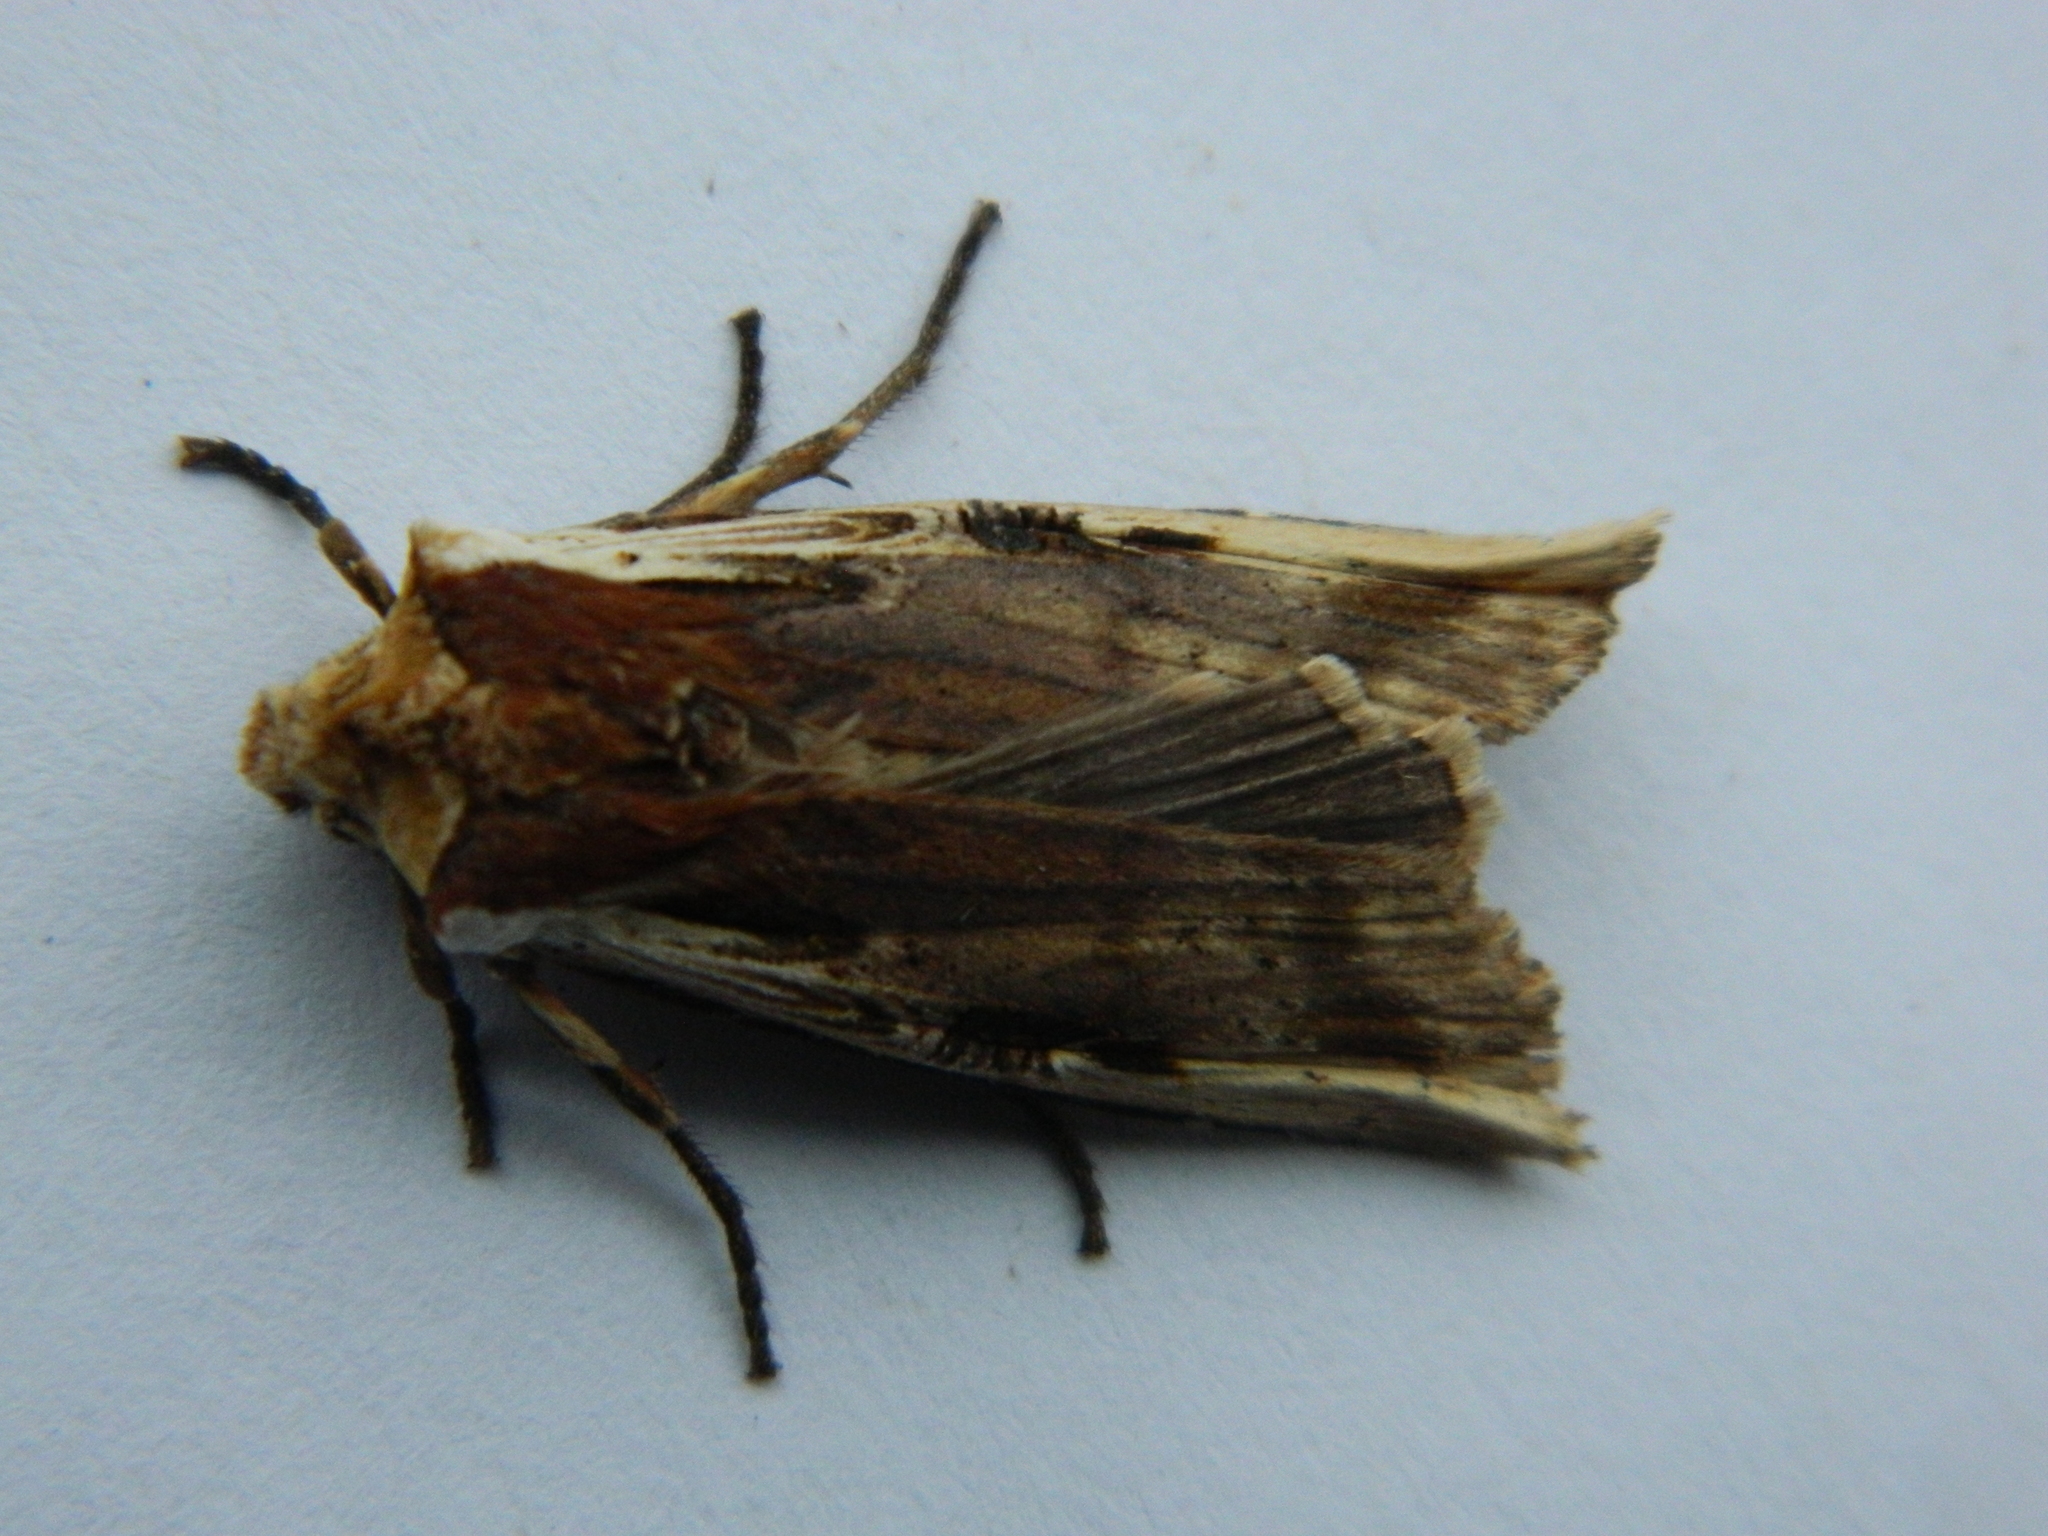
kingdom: Animalia
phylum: Arthropoda
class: Insecta
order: Lepidoptera
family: Noctuidae
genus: Xylena
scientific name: Xylena curvimacula
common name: Dot-and-dash swordgrass moth
